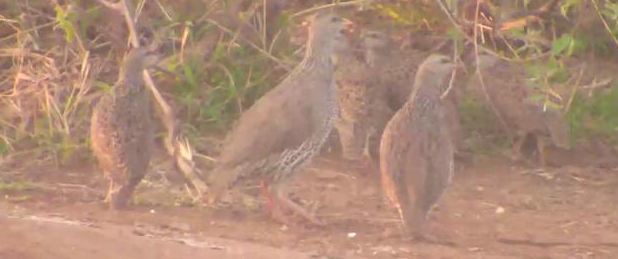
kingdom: Animalia
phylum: Chordata
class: Aves
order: Galliformes
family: Phasianidae
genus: Pternistis
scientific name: Pternistis natalensis
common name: Natal spurfowl
